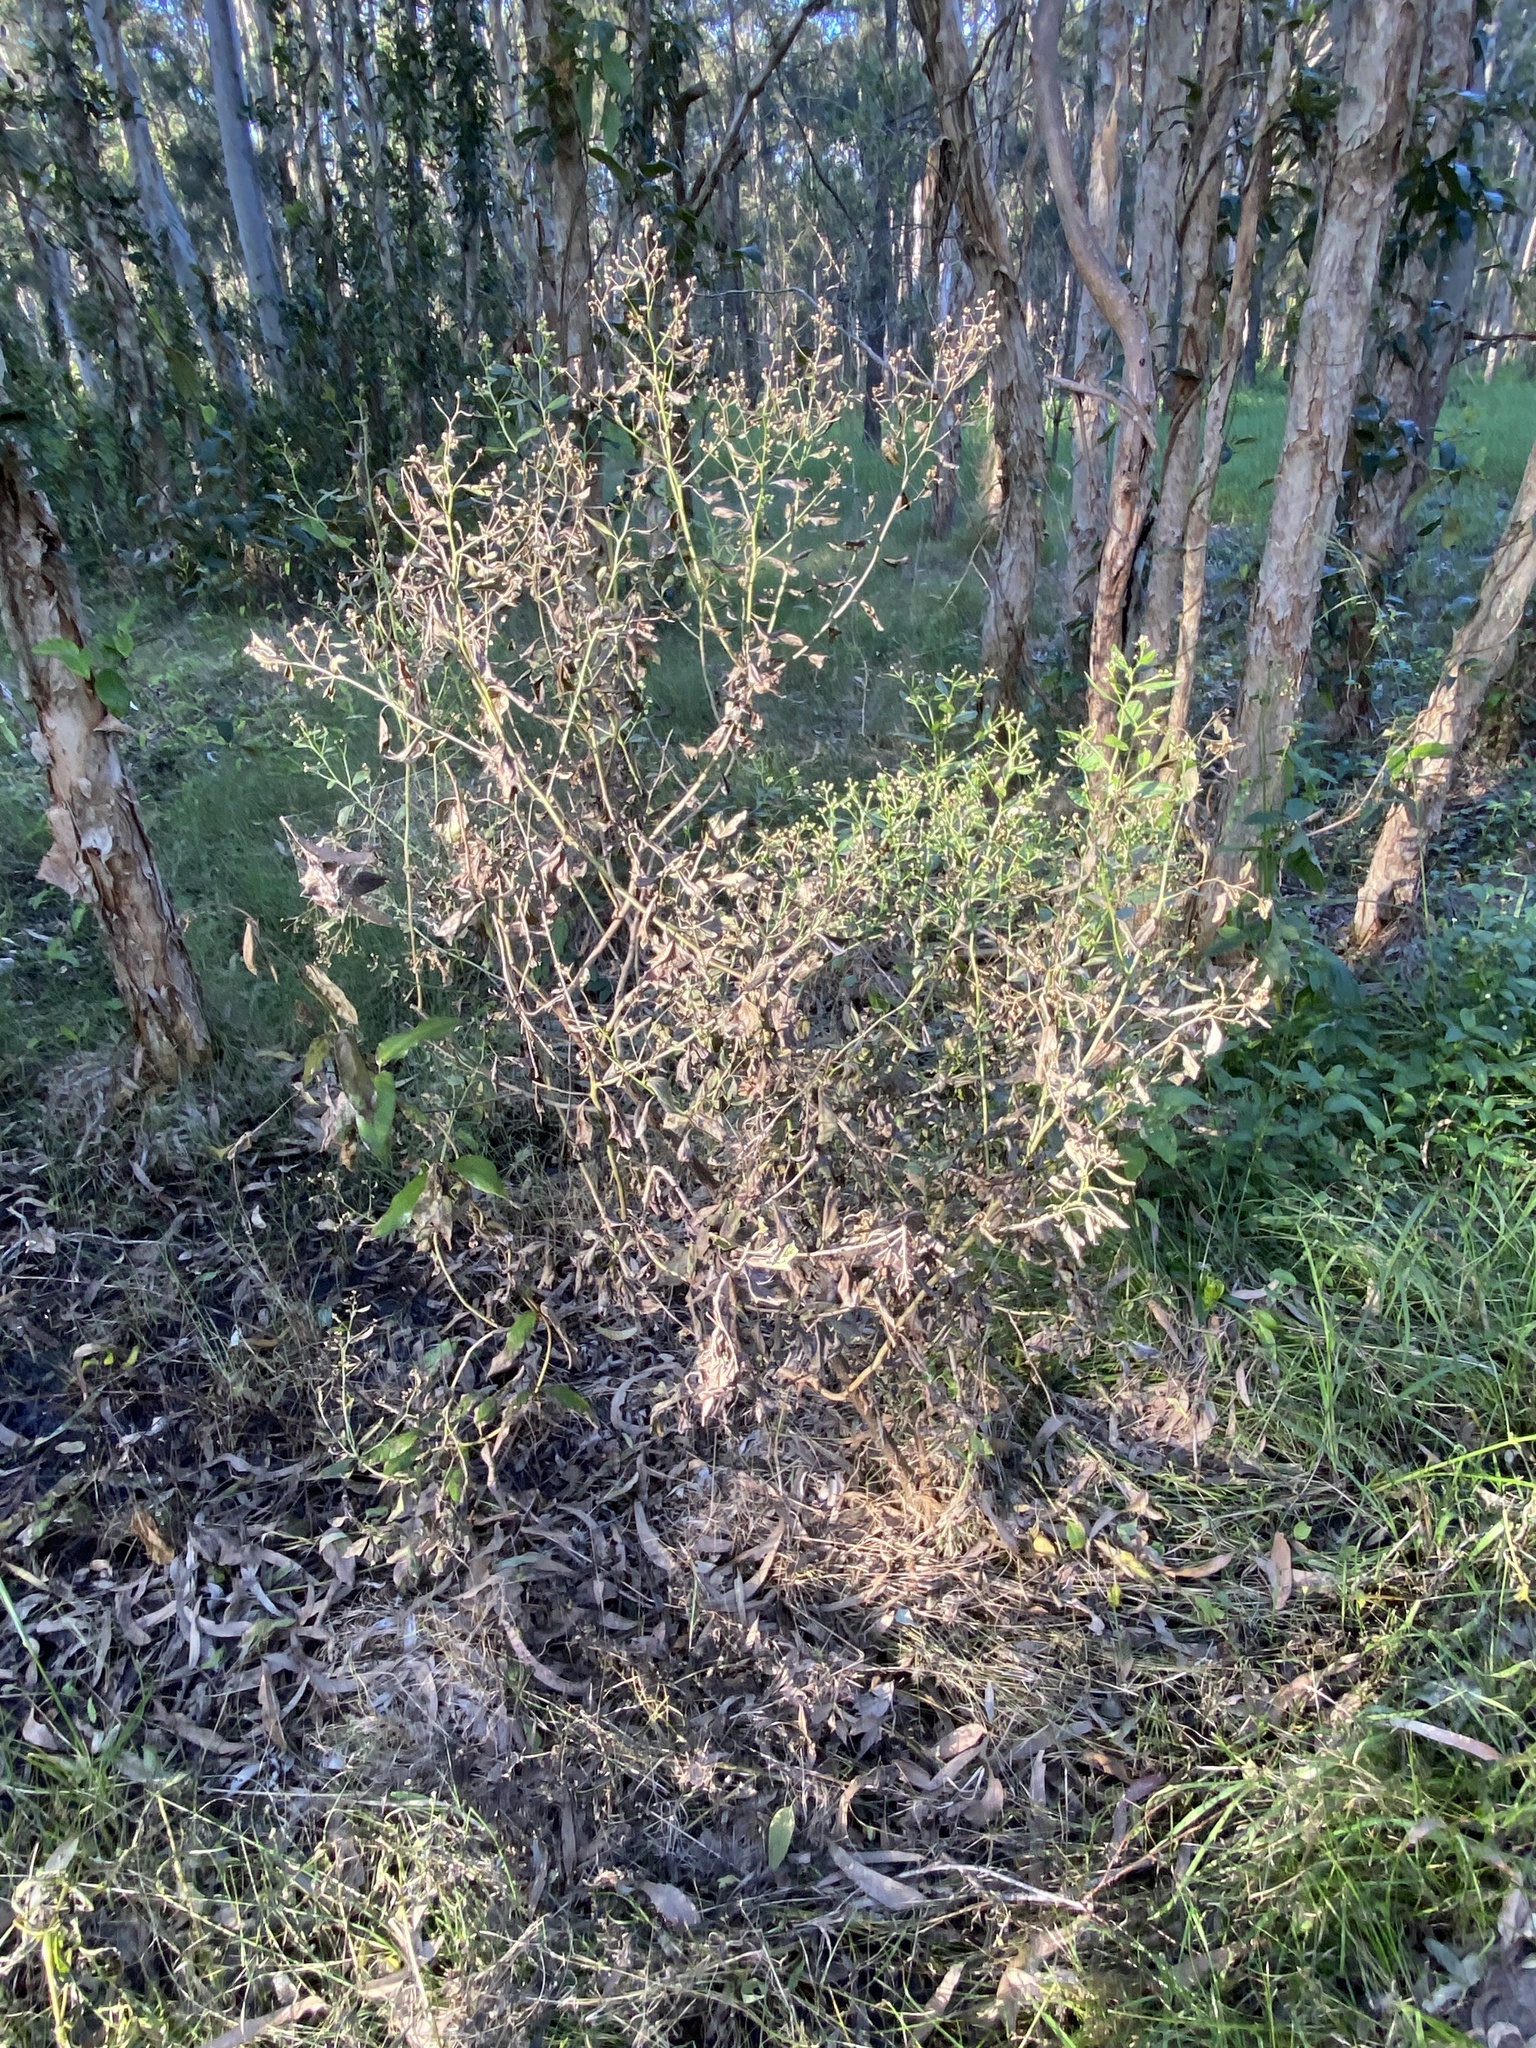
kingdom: Plantae
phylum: Tracheophyta
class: Magnoliopsida
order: Asterales
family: Asteraceae
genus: Baccharis
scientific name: Baccharis halimifolia
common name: Eastern baccharis
